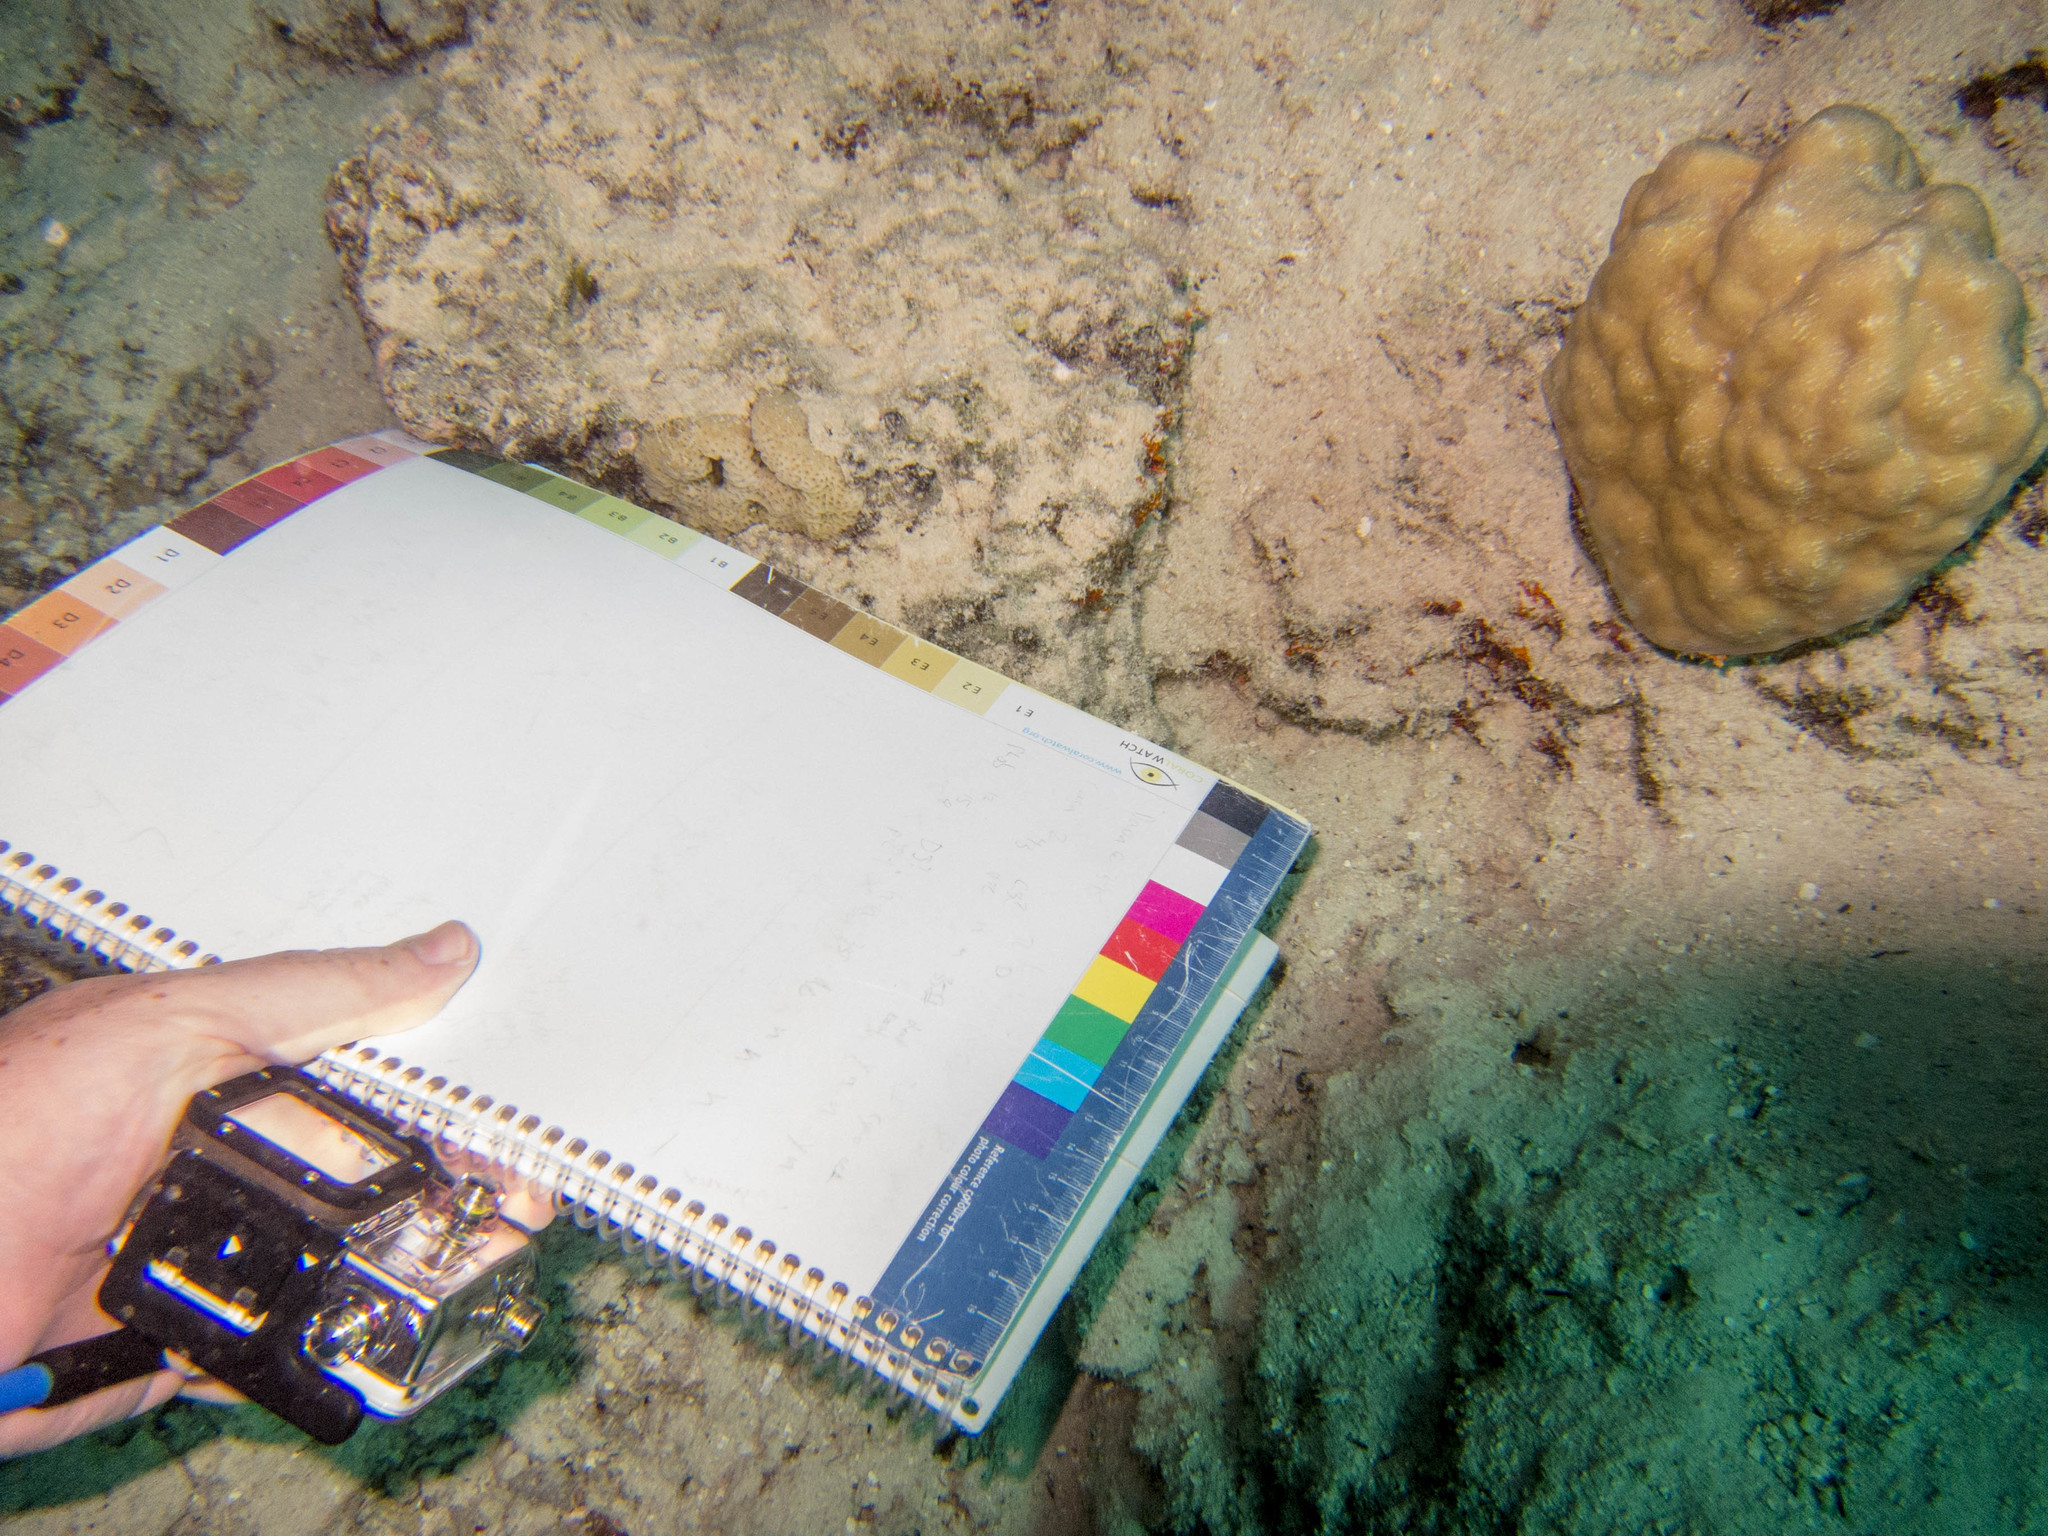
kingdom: Animalia
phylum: Cnidaria
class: Anthozoa
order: Scleractinia
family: Psammocoridae
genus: Psammocora
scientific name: Psammocora profundacella
